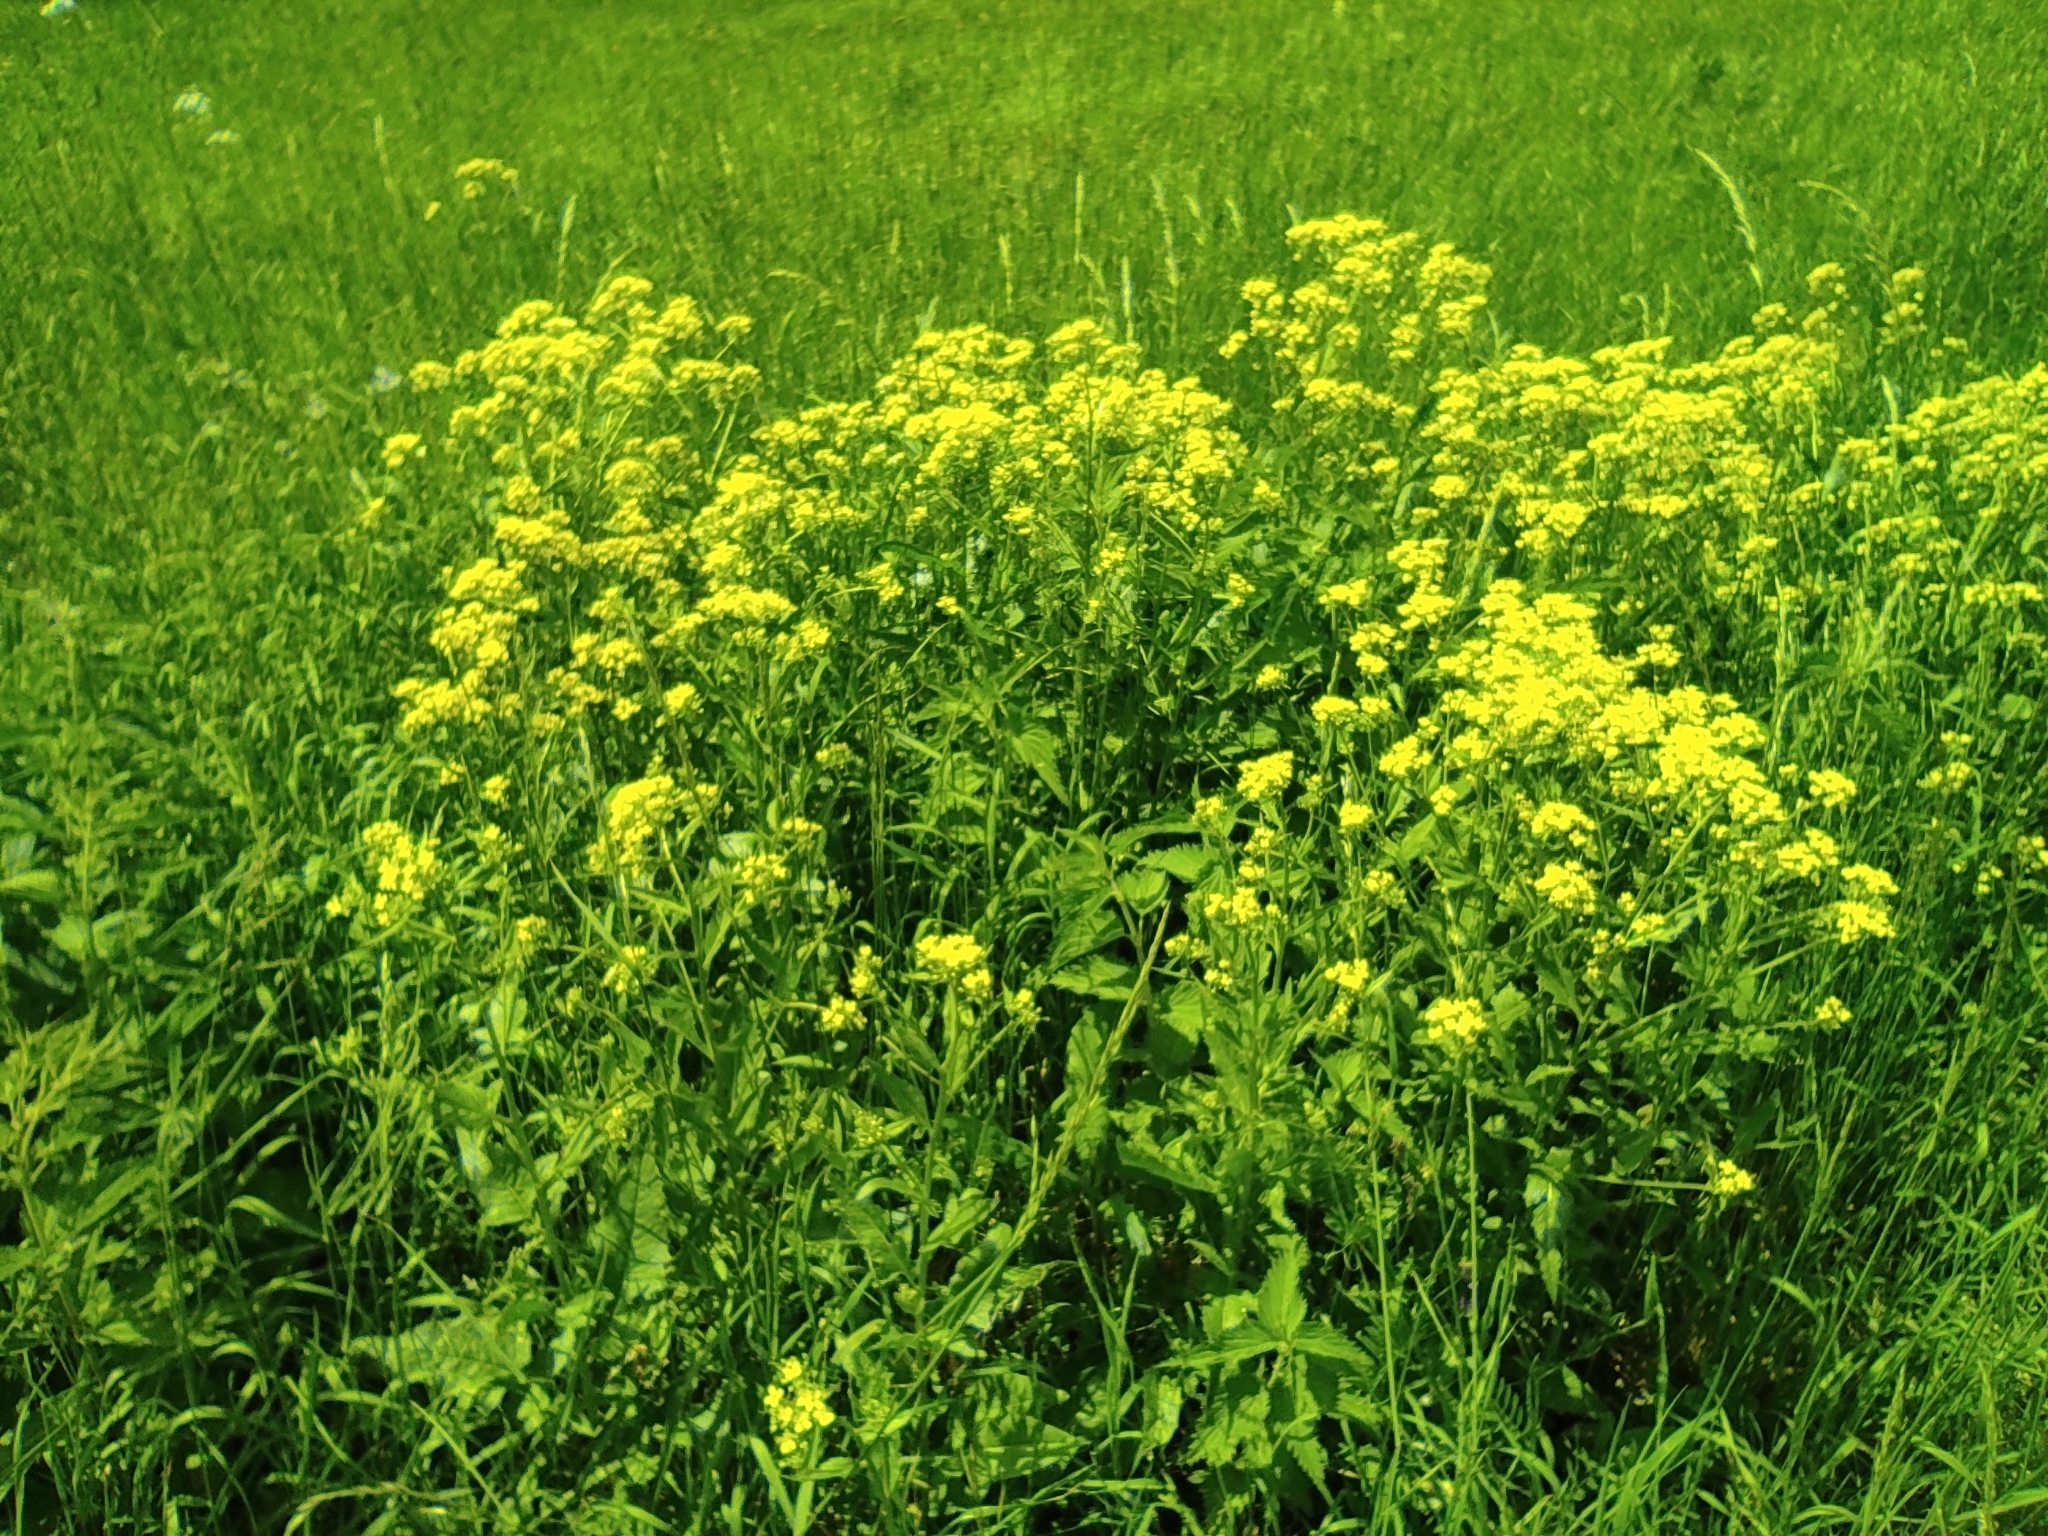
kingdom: Plantae
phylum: Tracheophyta
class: Magnoliopsida
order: Brassicales
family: Brassicaceae
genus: Bunias
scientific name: Bunias orientalis
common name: Warty-cabbage
